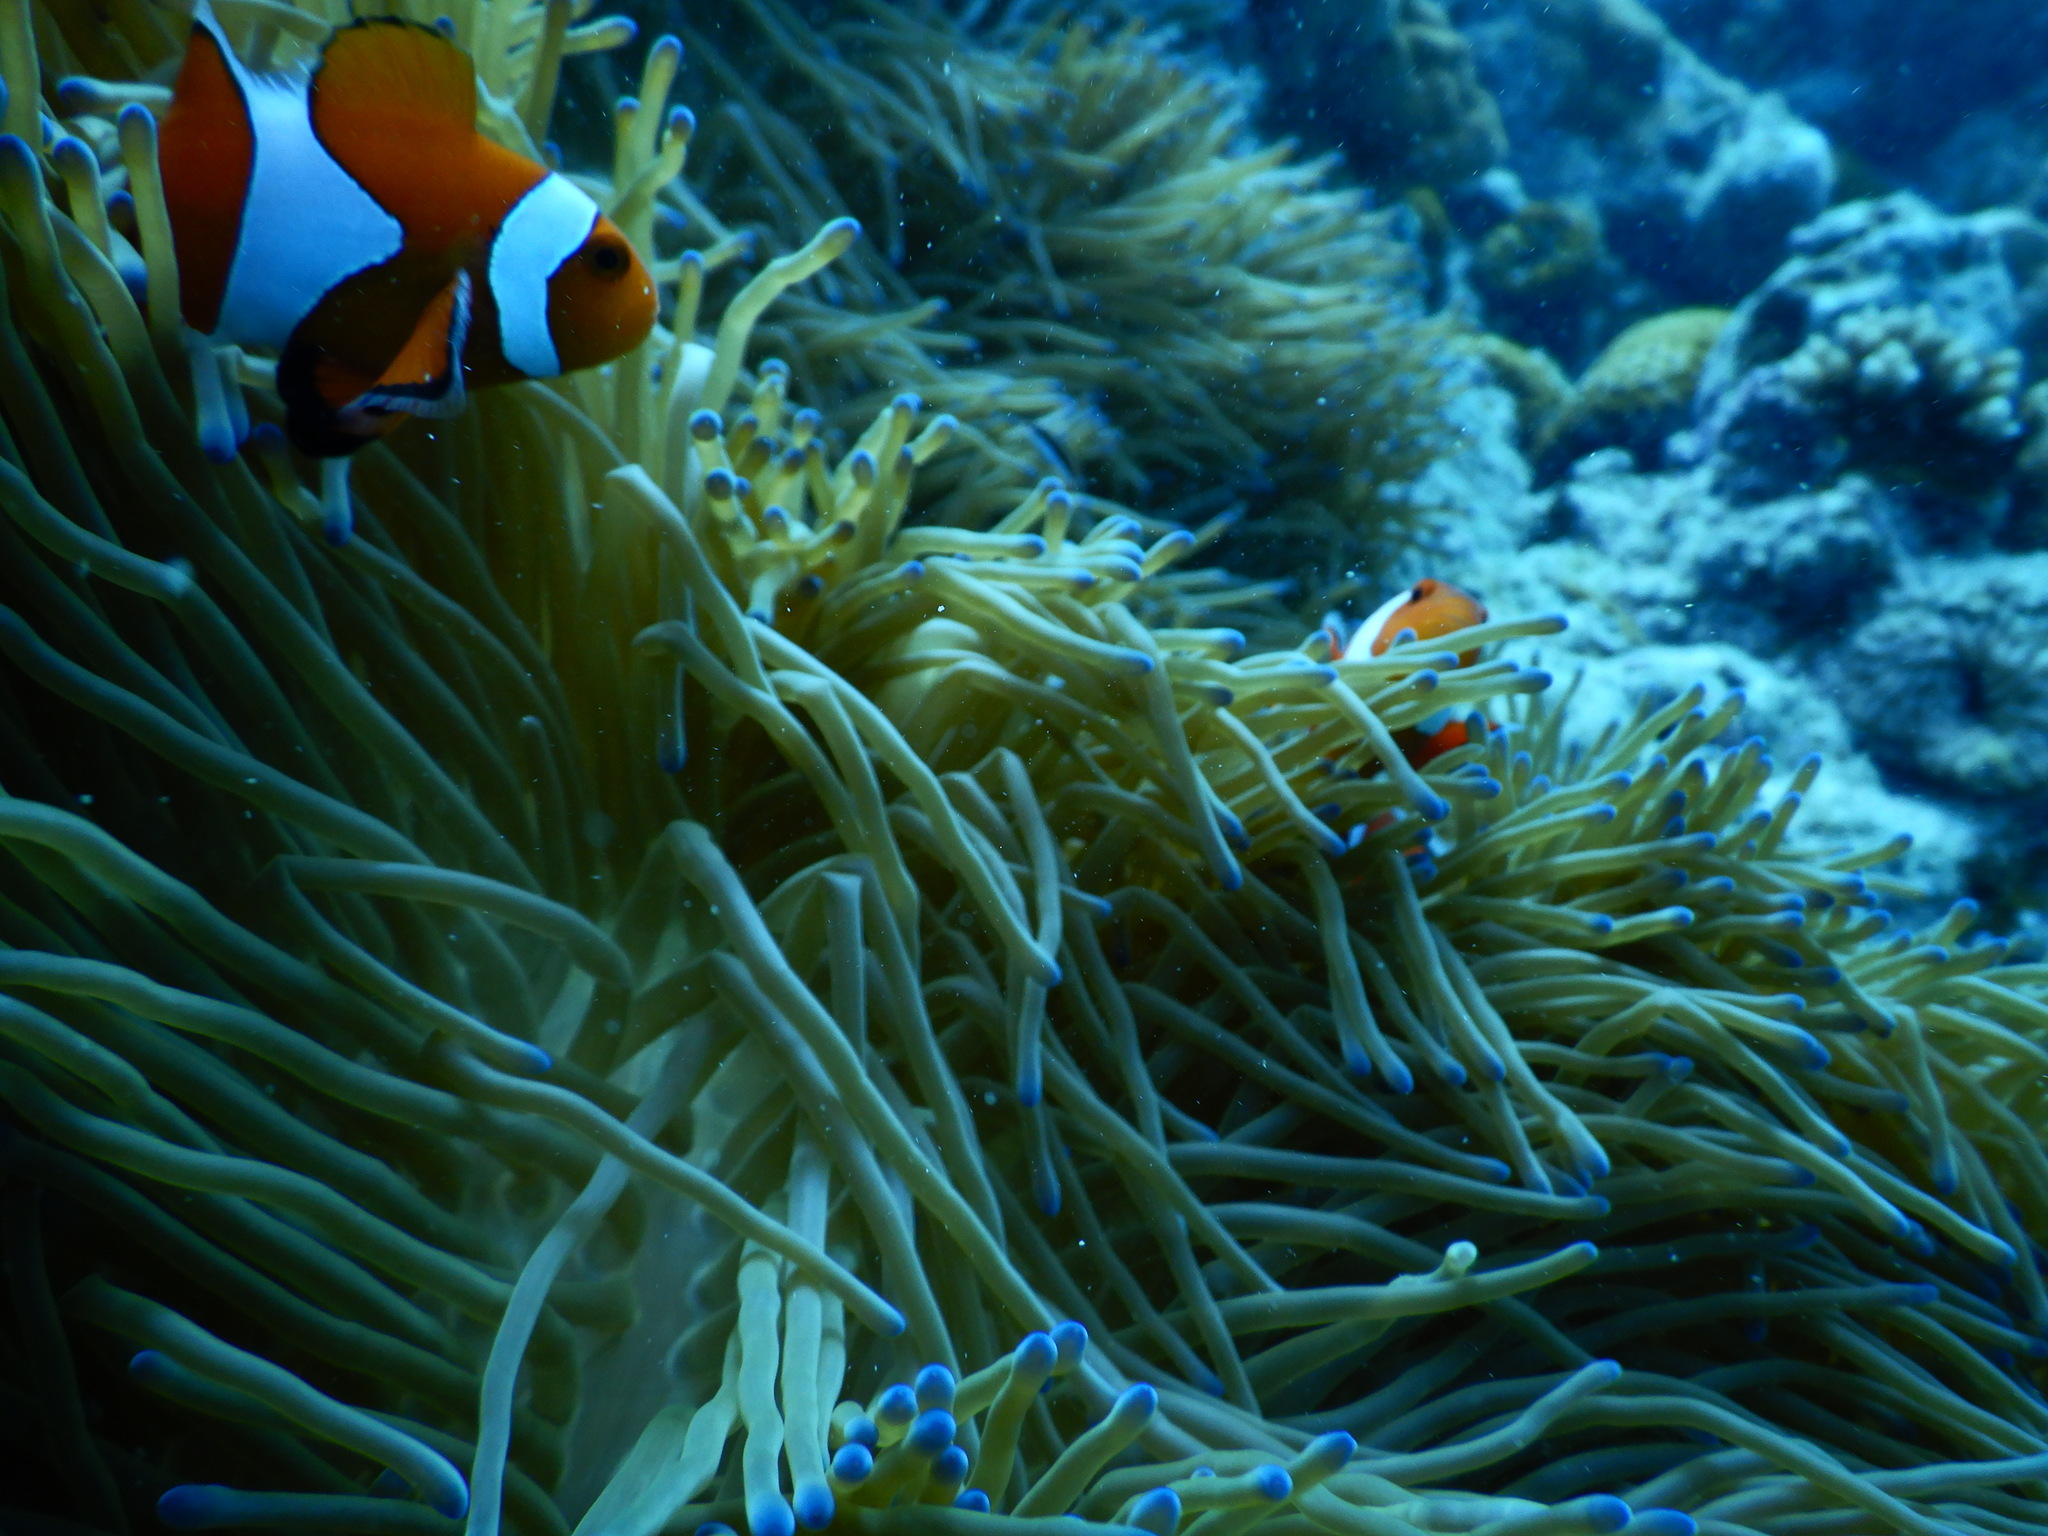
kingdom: Animalia
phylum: Chordata
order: Perciformes
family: Pomacentridae
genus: Amphiprion
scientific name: Amphiprion ocellaris
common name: Clown anemonefish
